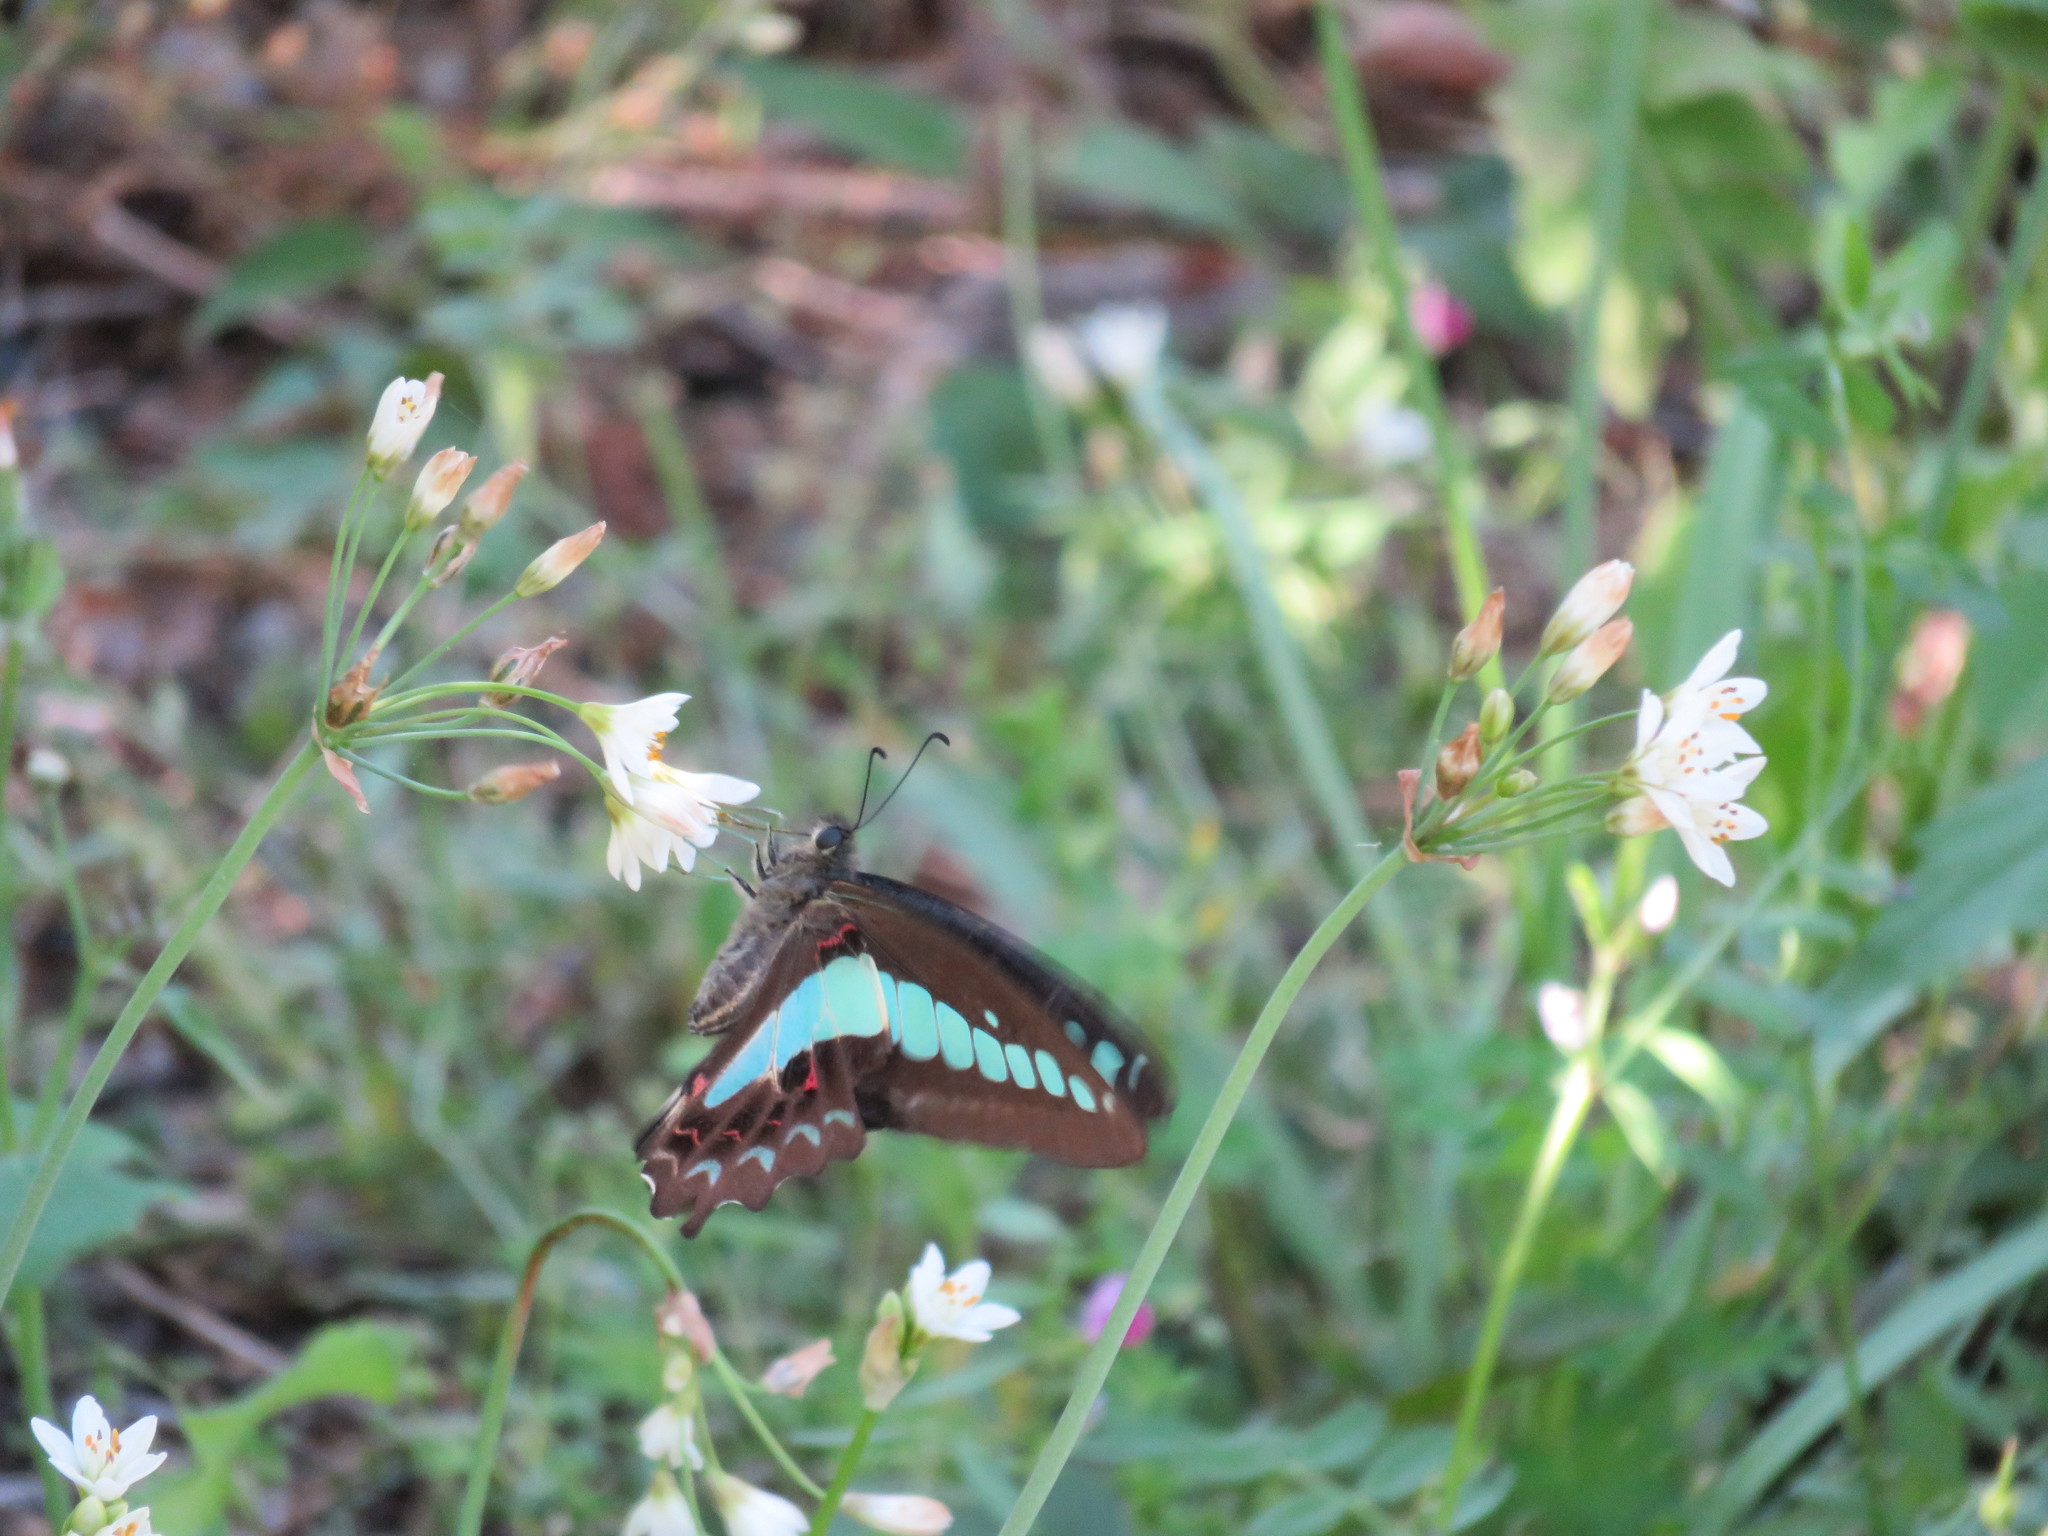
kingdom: Fungi
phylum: Ascomycota
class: Sordariomycetes
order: Microascales
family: Microascaceae
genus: Graphium
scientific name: Graphium sarpedon
